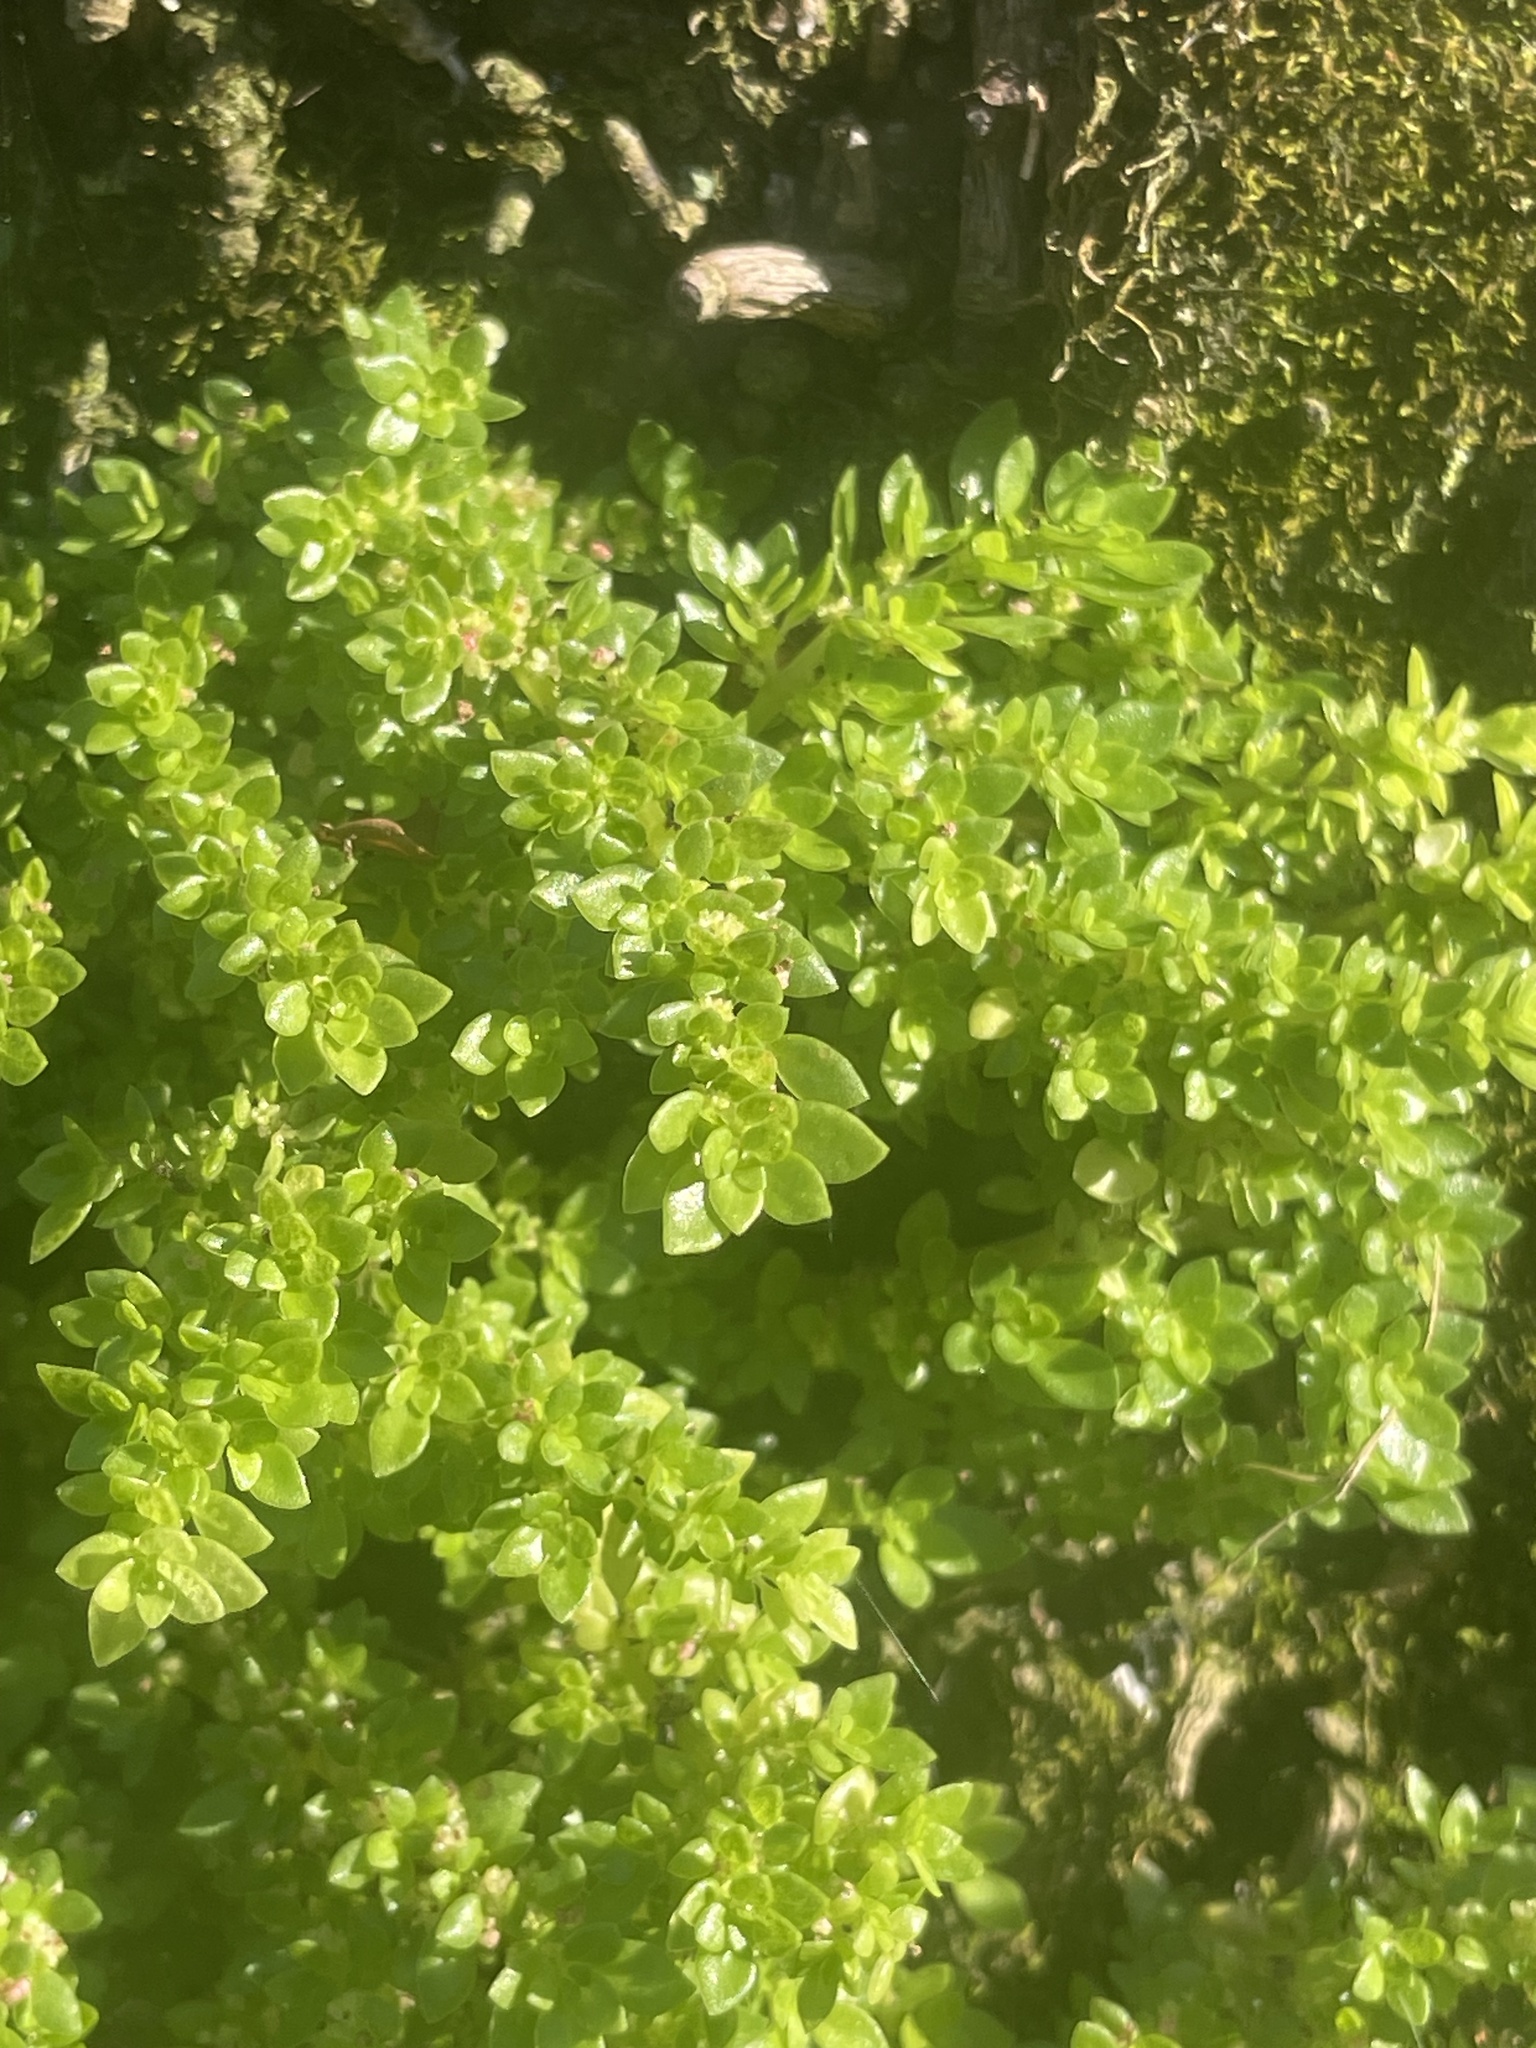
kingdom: Plantae
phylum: Tracheophyta
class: Magnoliopsida
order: Rosales
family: Urticaceae
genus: Pilea
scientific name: Pilea microphylla
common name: Artillery-plant
